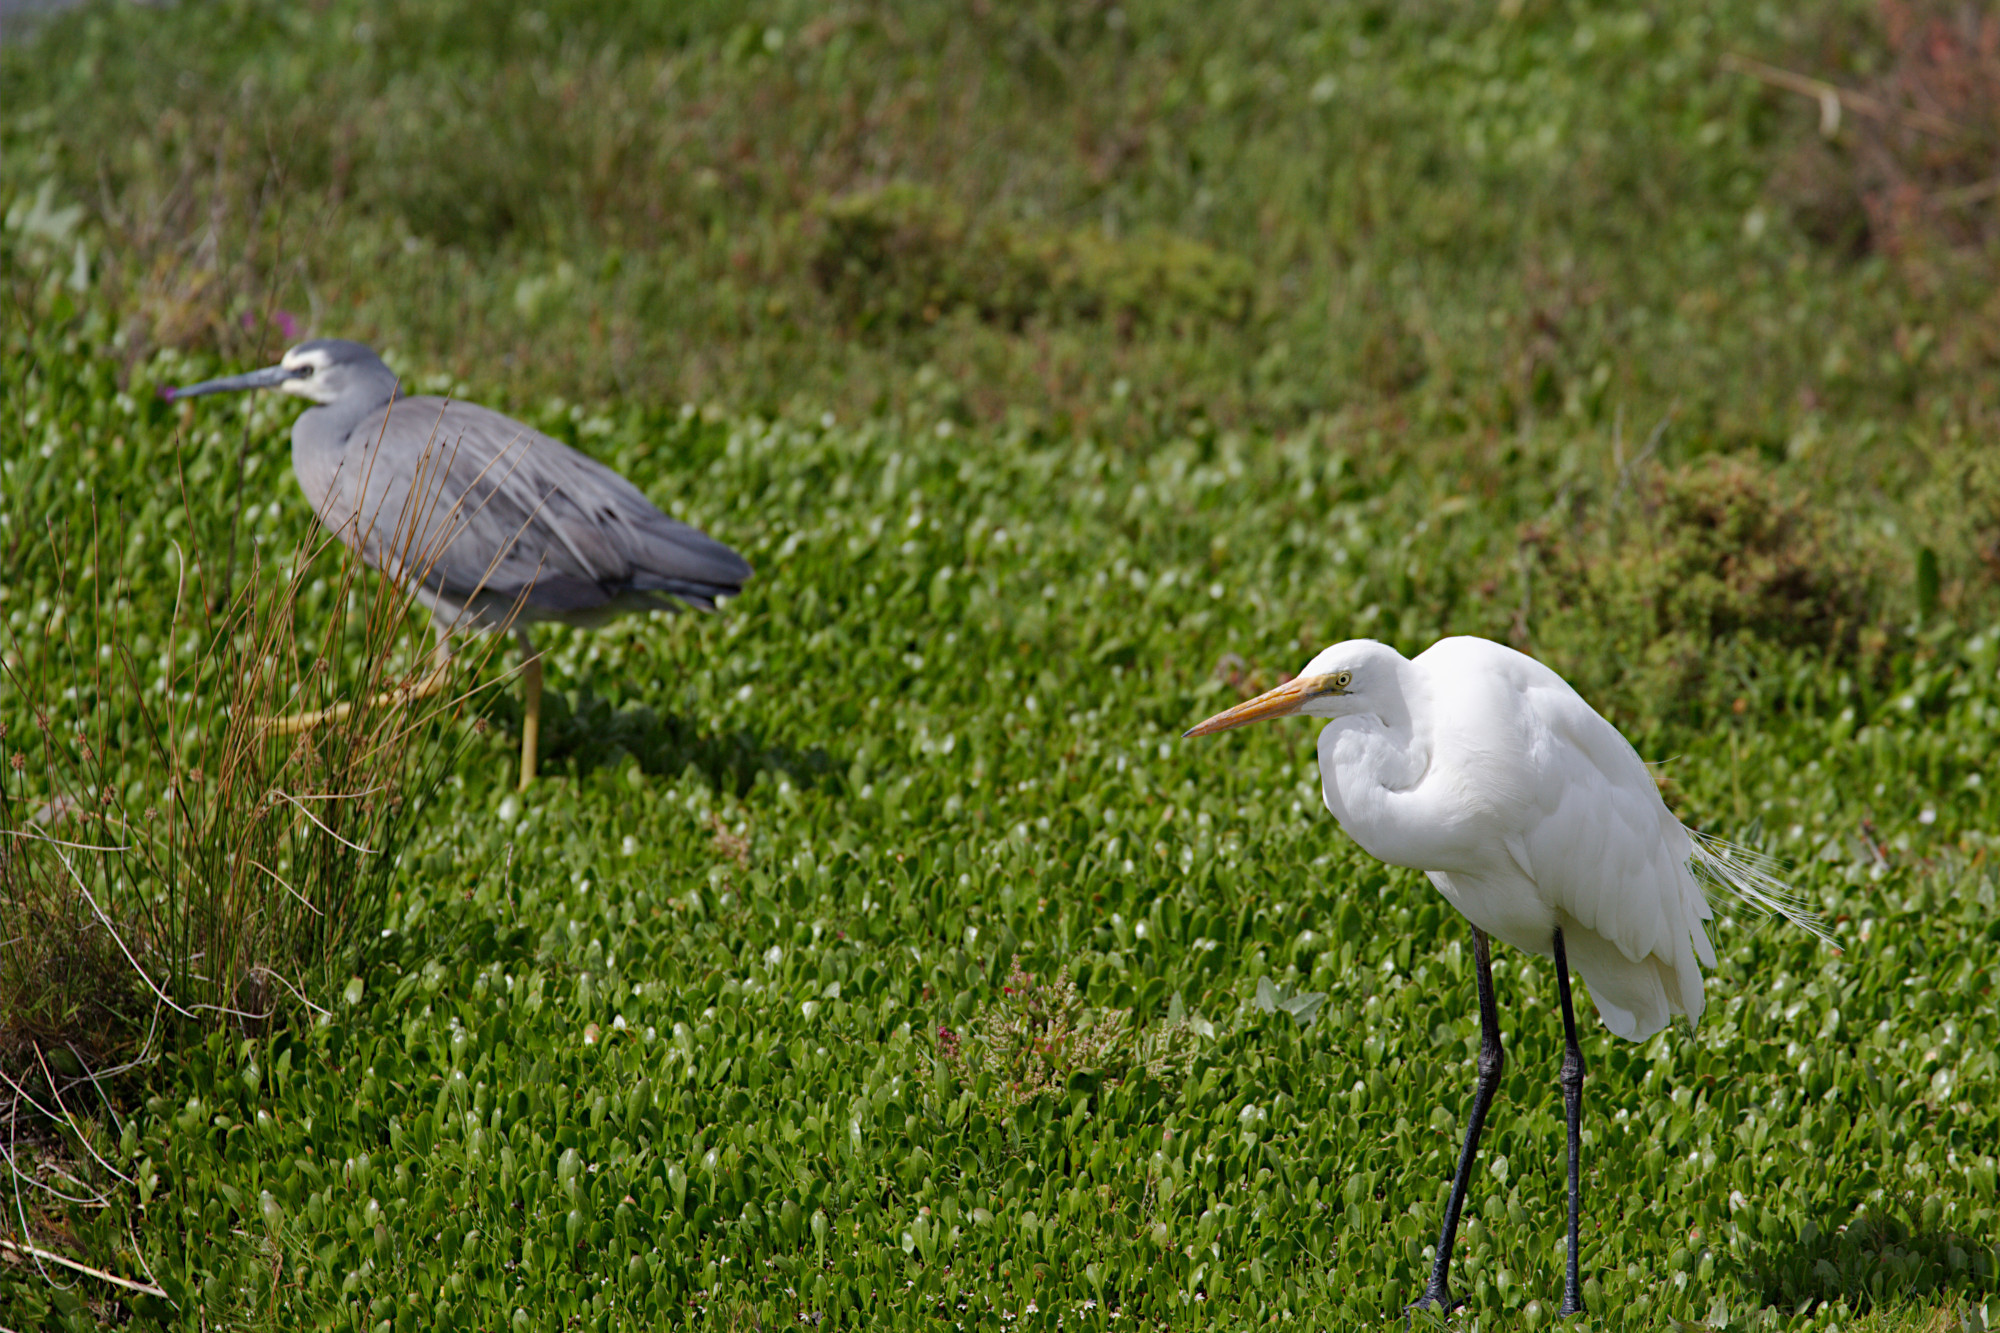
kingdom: Animalia
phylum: Chordata
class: Aves
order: Pelecaniformes
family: Ardeidae
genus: Ardea
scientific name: Ardea alba
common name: Great egret
